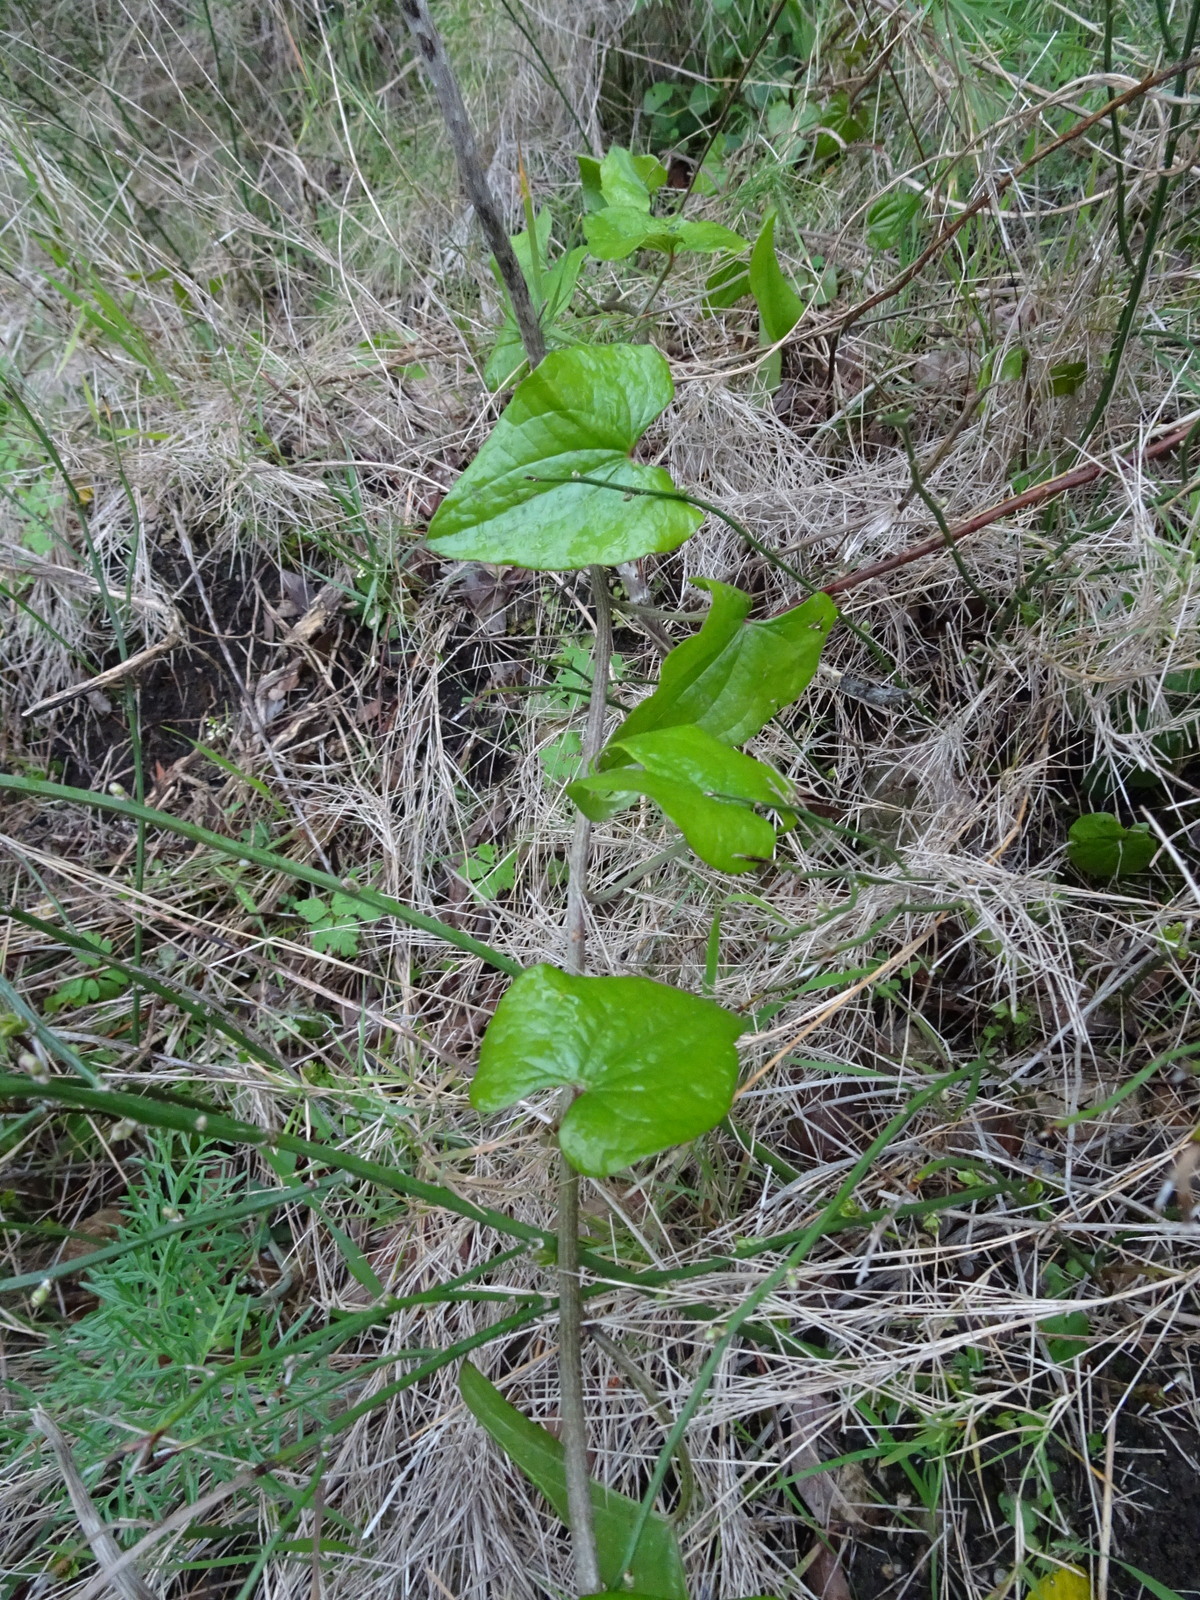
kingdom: Plantae
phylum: Tracheophyta
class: Liliopsida
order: Dioscoreales
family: Dioscoreaceae
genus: Dioscorea
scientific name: Dioscorea communis
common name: Black-bindweed
